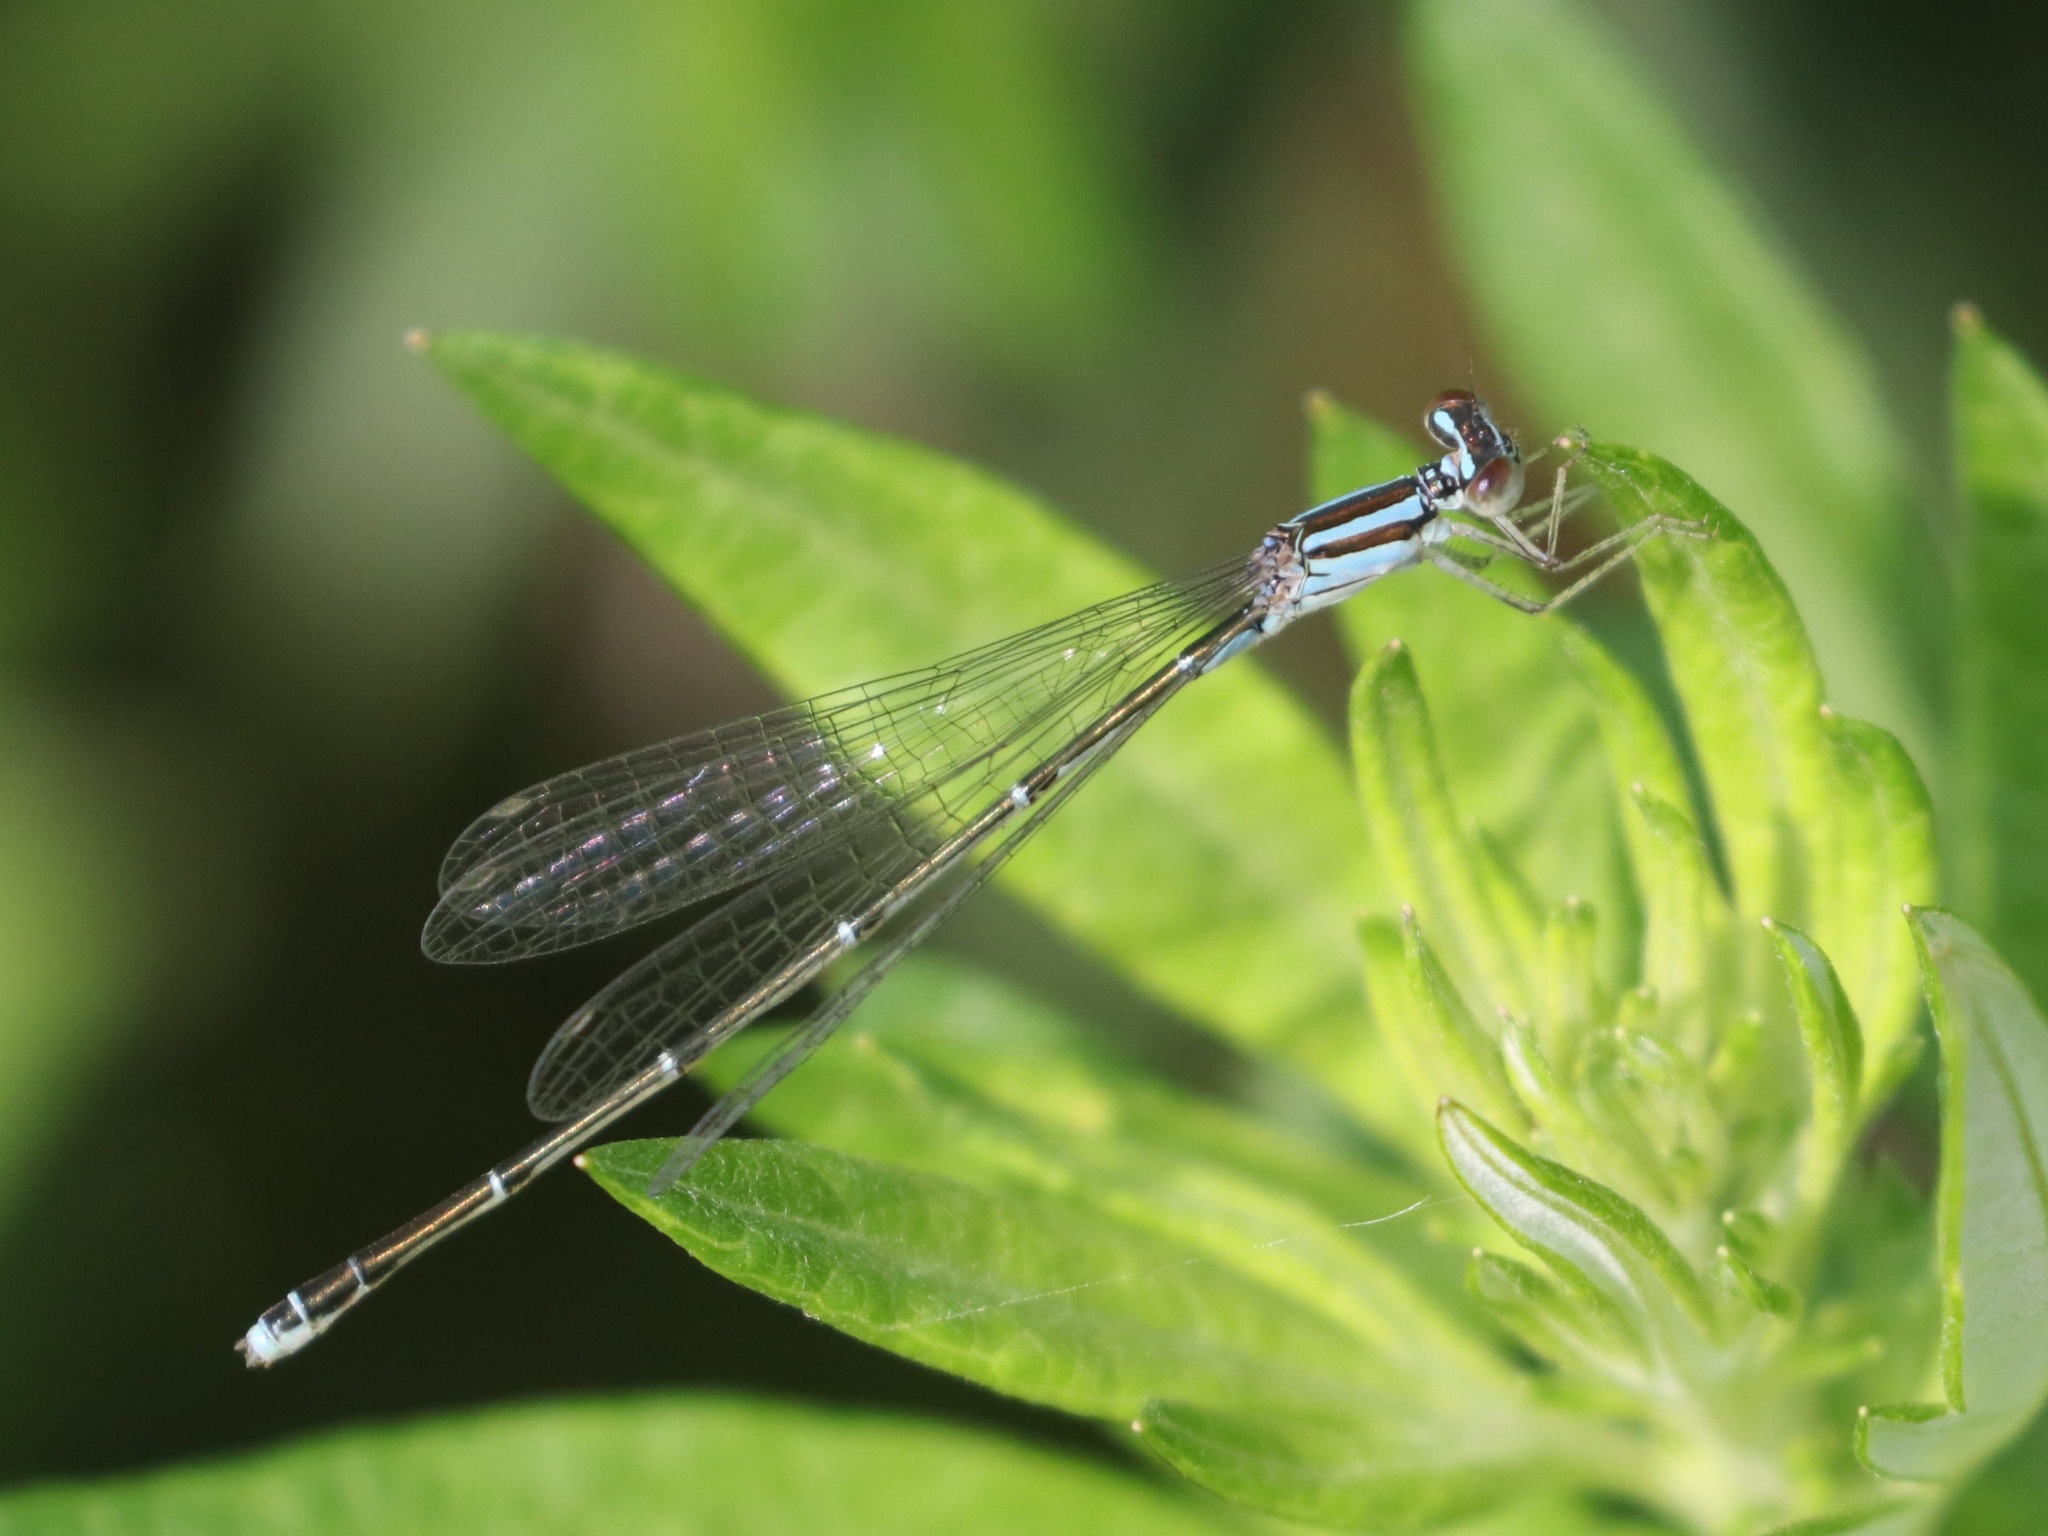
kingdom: Animalia
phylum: Arthropoda
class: Insecta
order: Odonata
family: Coenagrionidae
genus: Enallagma
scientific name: Enallagma signatum
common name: Orange bluet
